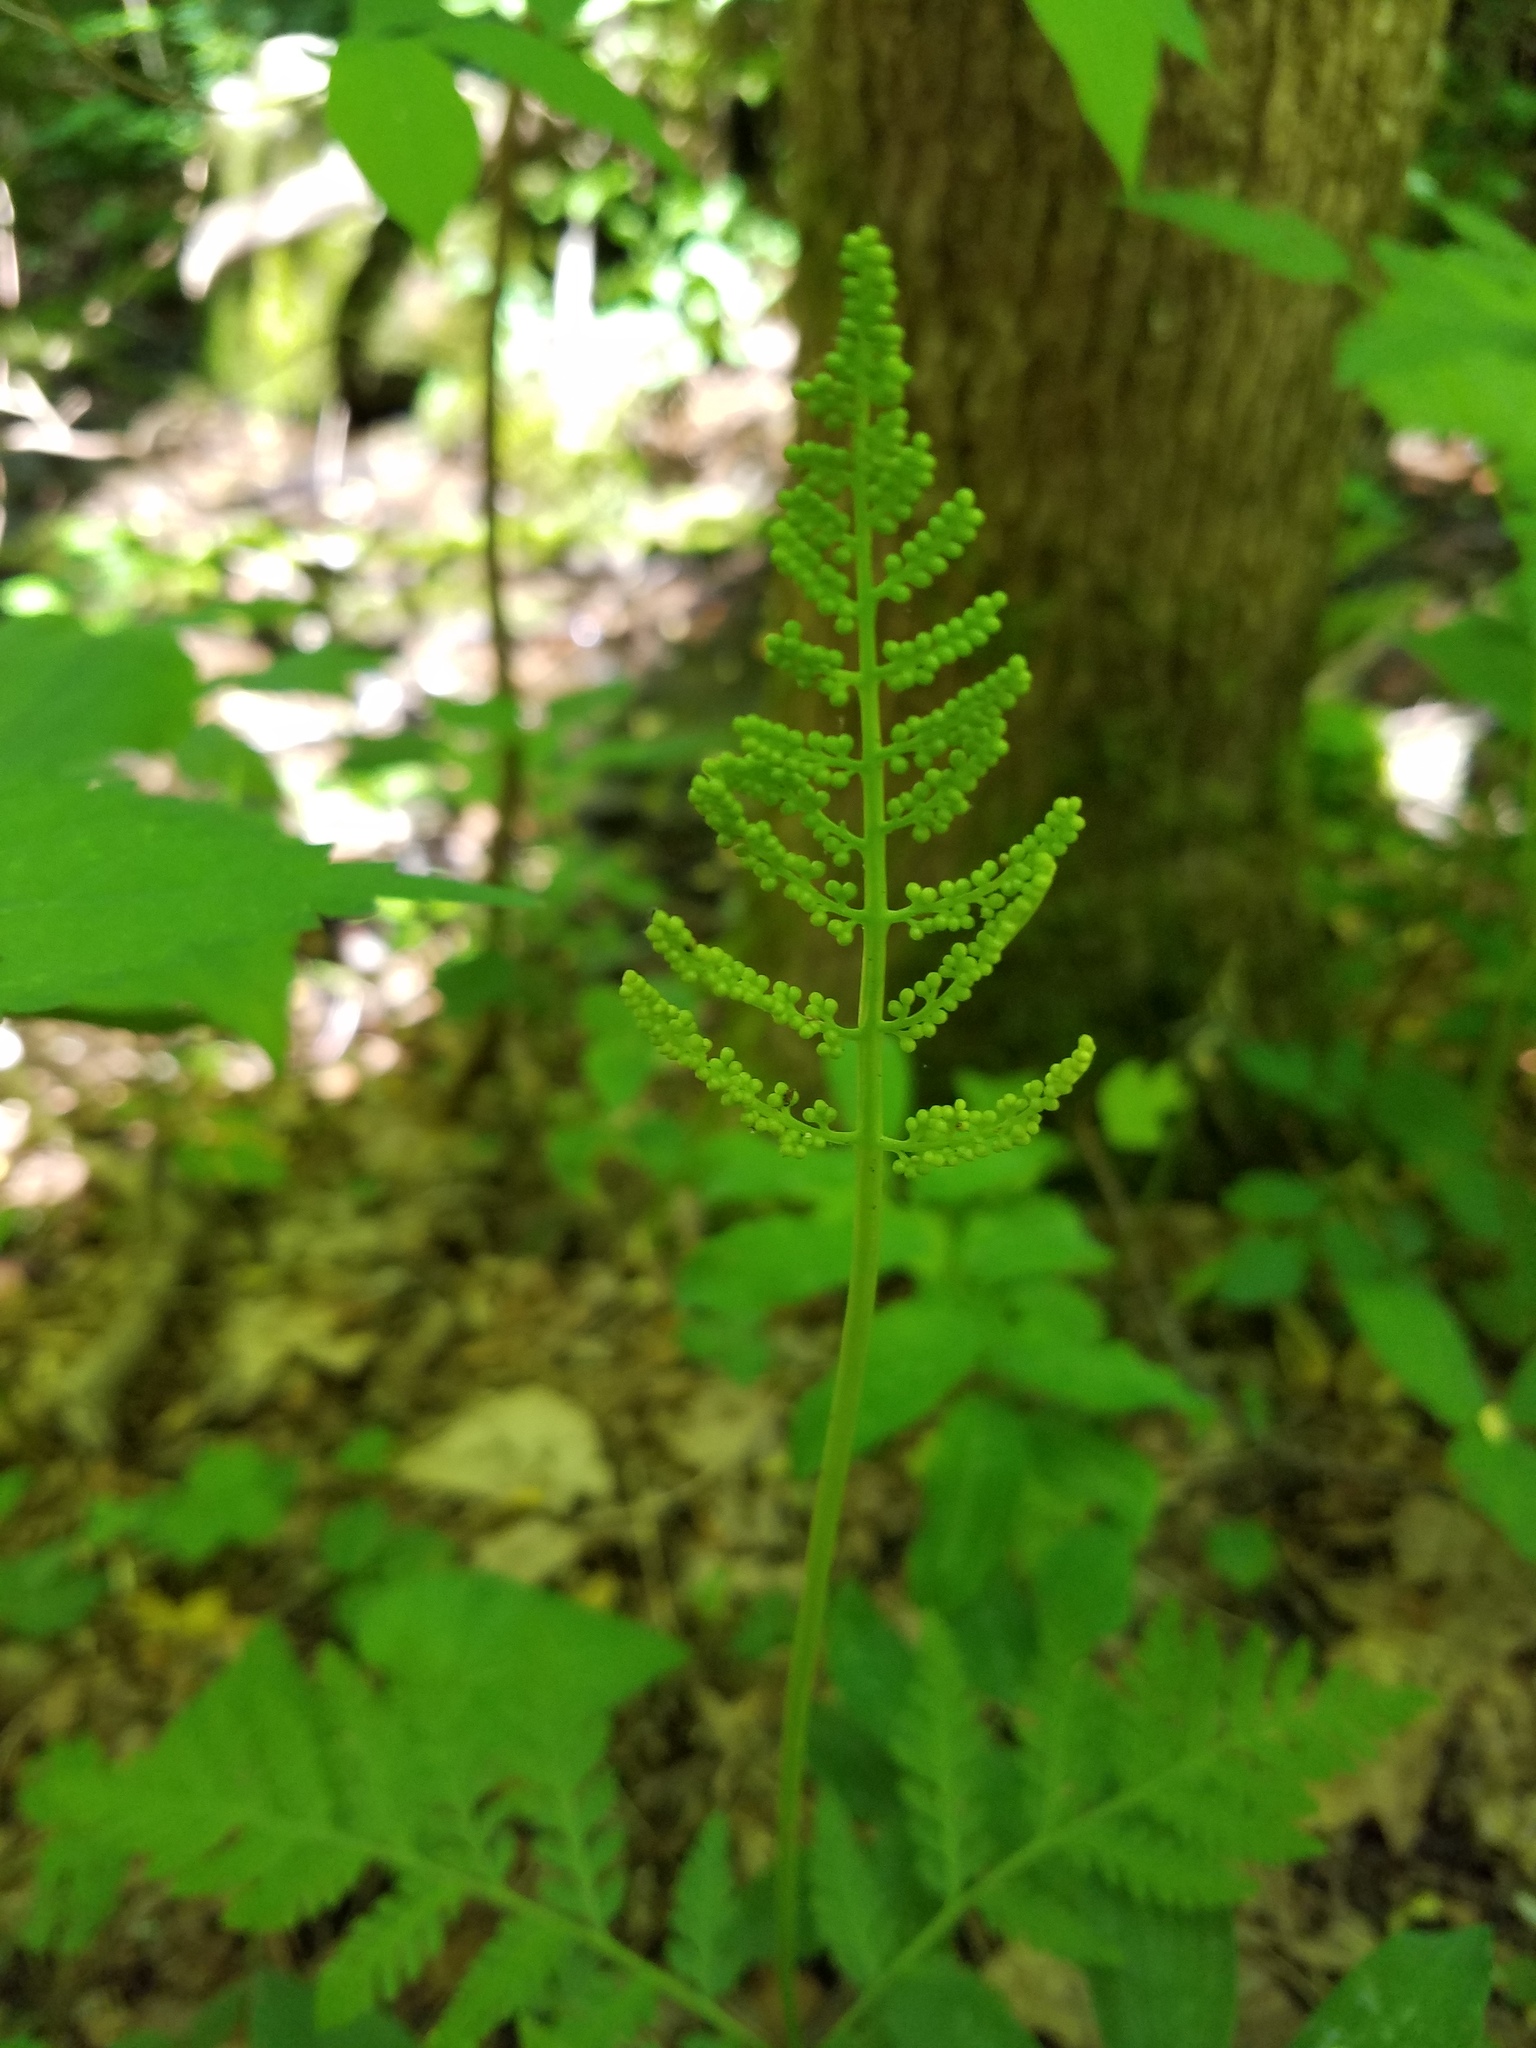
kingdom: Plantae
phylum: Tracheophyta
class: Polypodiopsida
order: Ophioglossales
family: Ophioglossaceae
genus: Botrypus
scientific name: Botrypus virginianus
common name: Common grapefern
